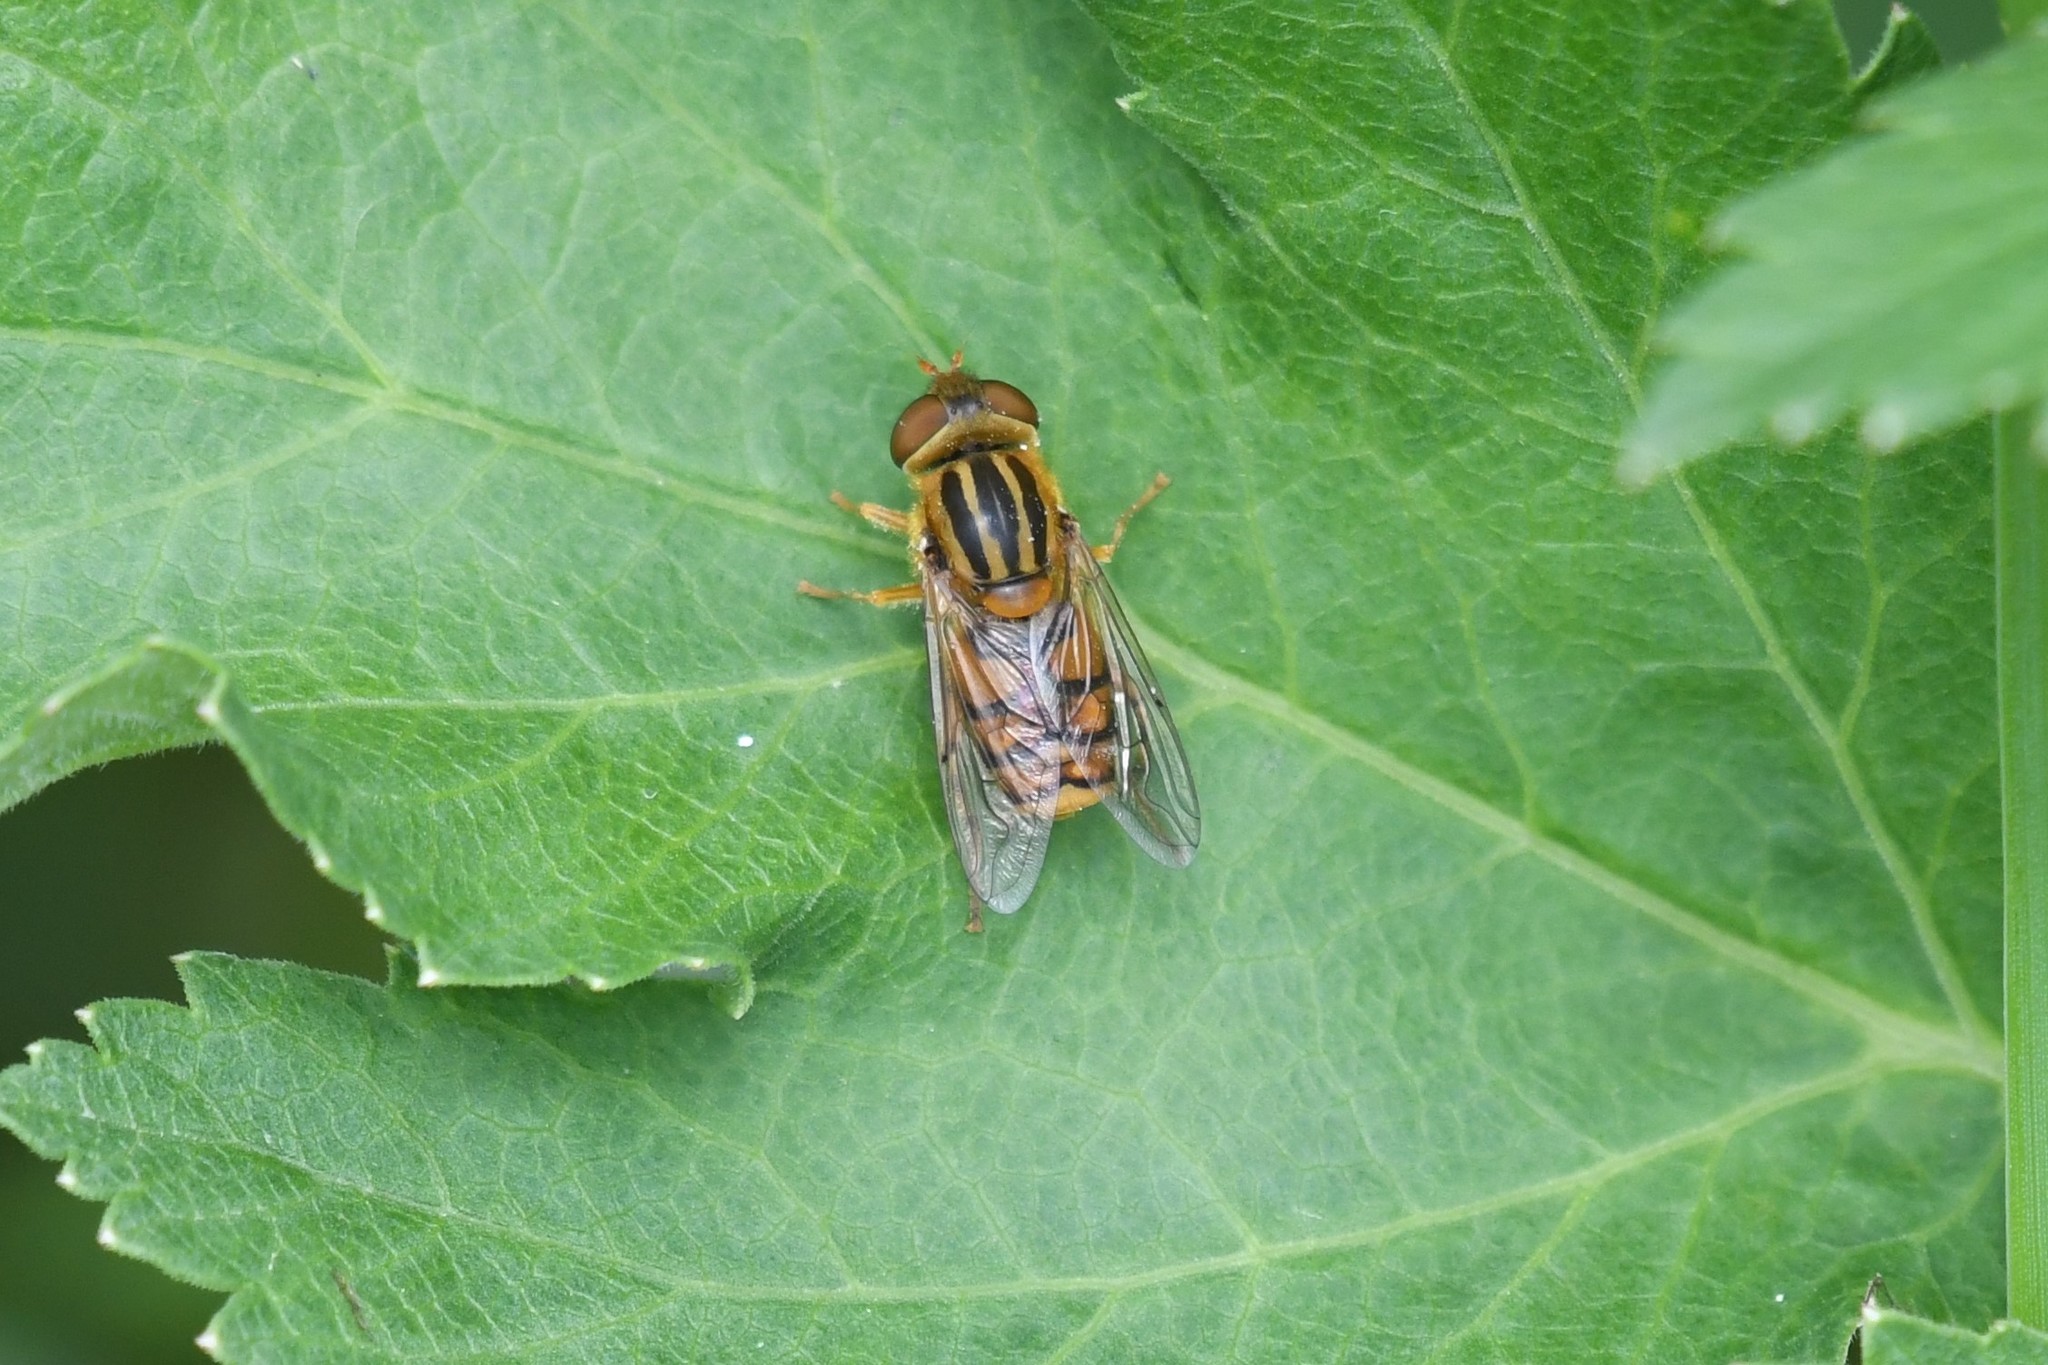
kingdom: Animalia
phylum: Arthropoda
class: Insecta
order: Diptera
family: Syrphidae
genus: Parhelophilus
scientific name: Parhelophilus laetus
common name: Common bog fly
